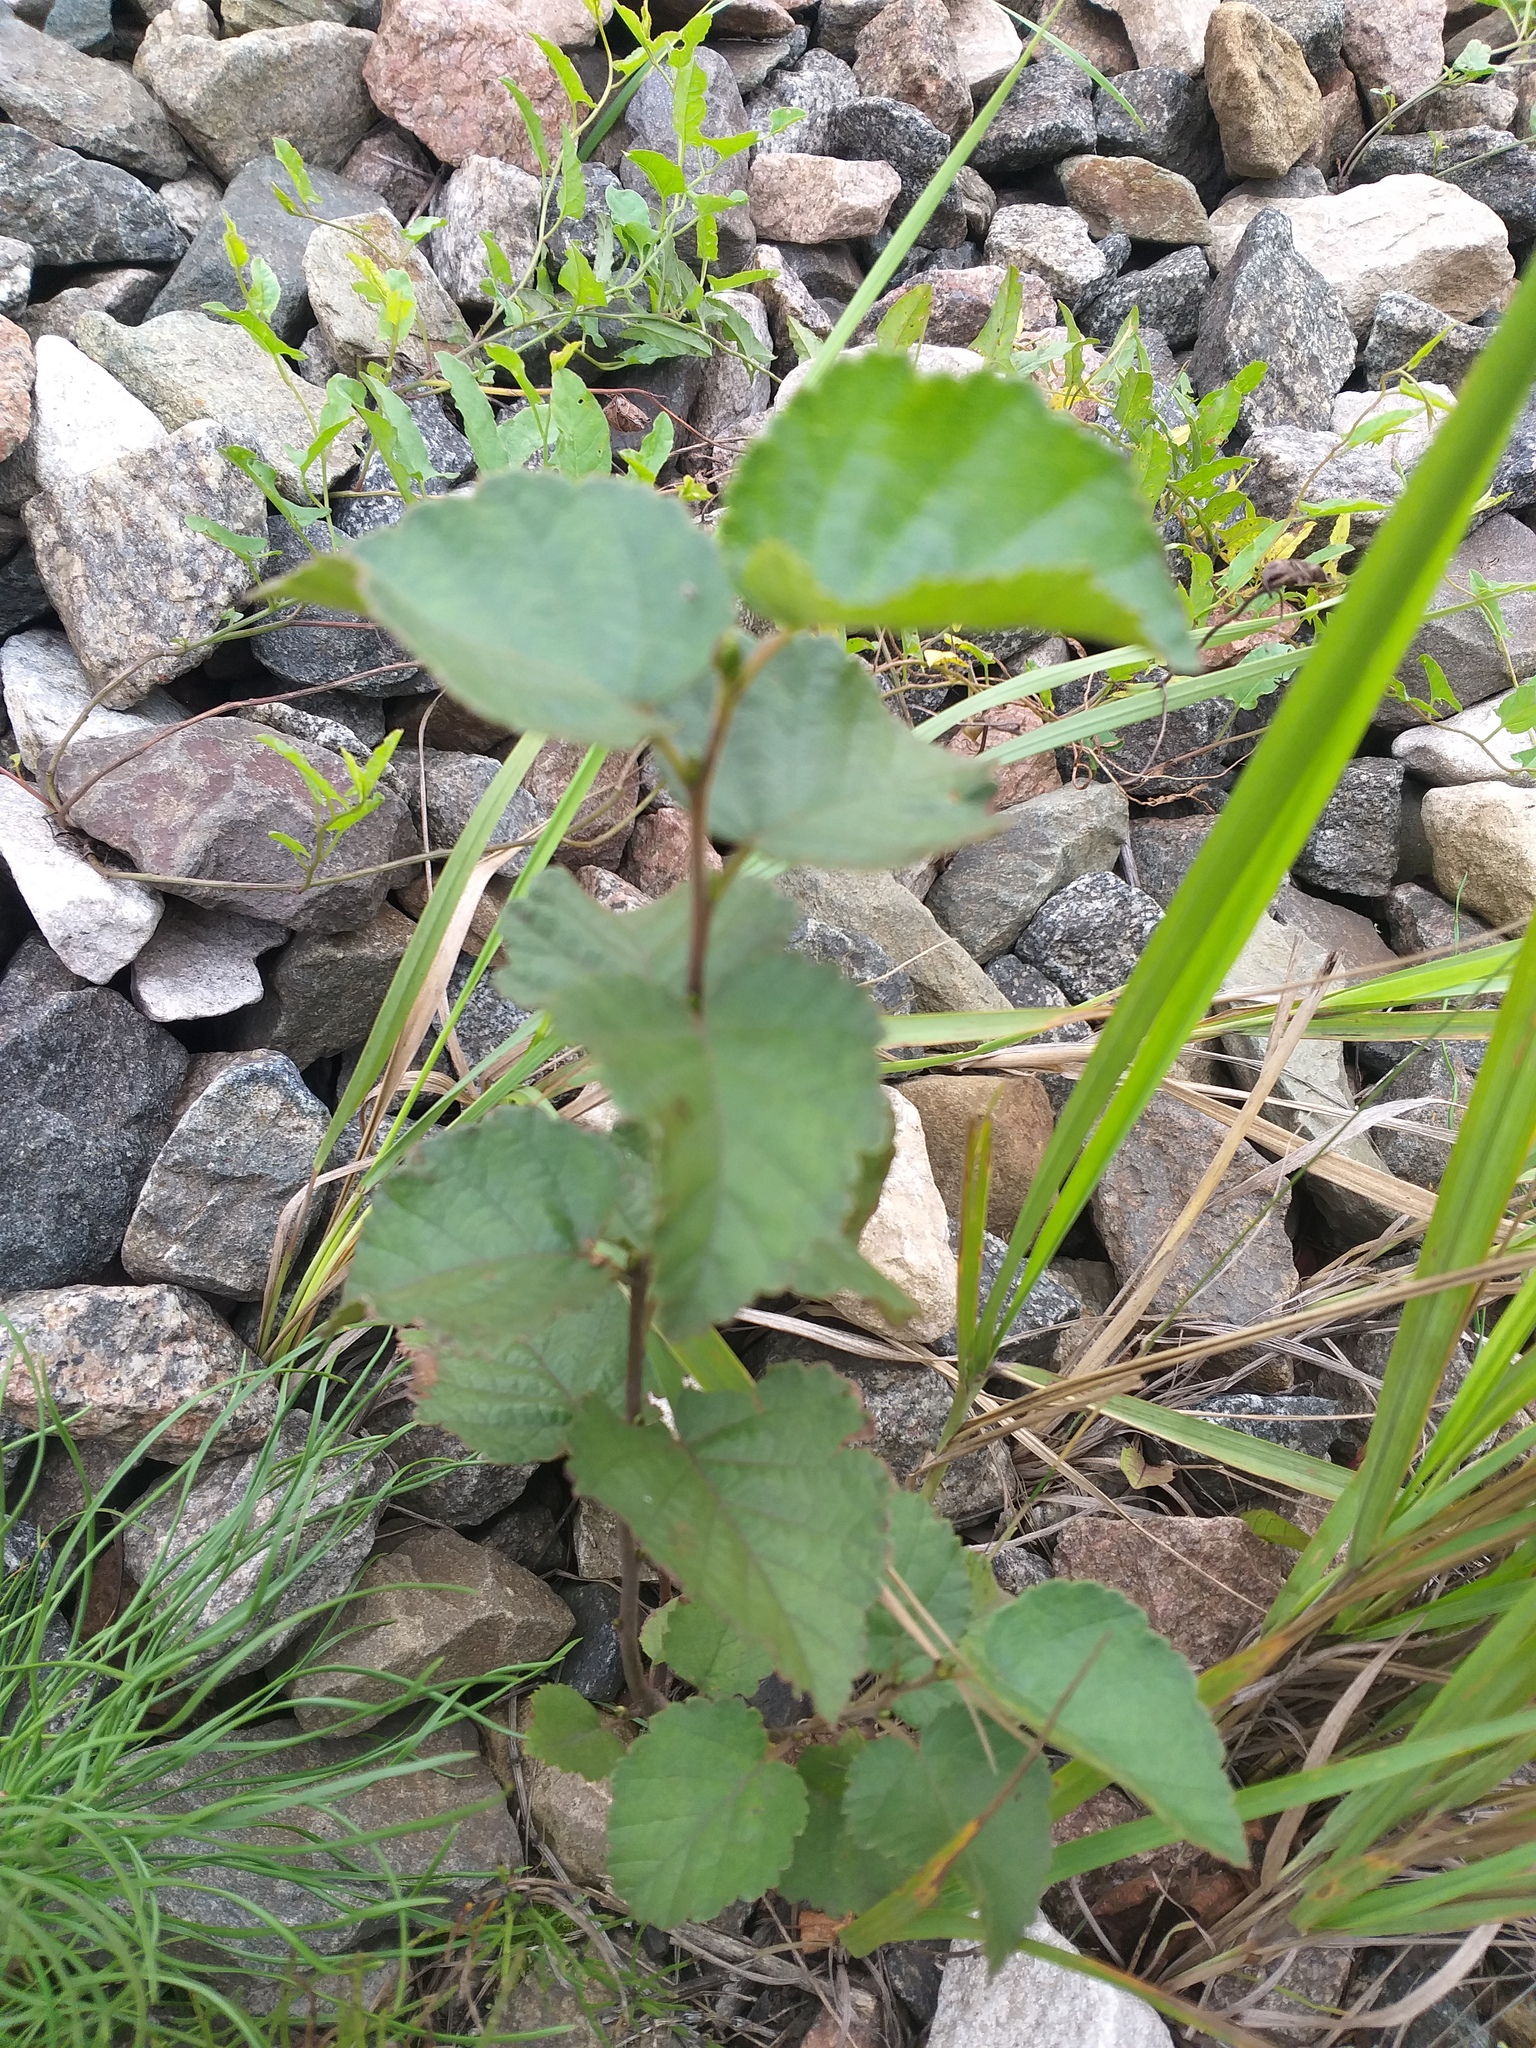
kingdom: Plantae
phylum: Tracheophyta
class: Magnoliopsida
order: Fagales
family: Betulaceae
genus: Betula
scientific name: Betula pubescens
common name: Downy birch
